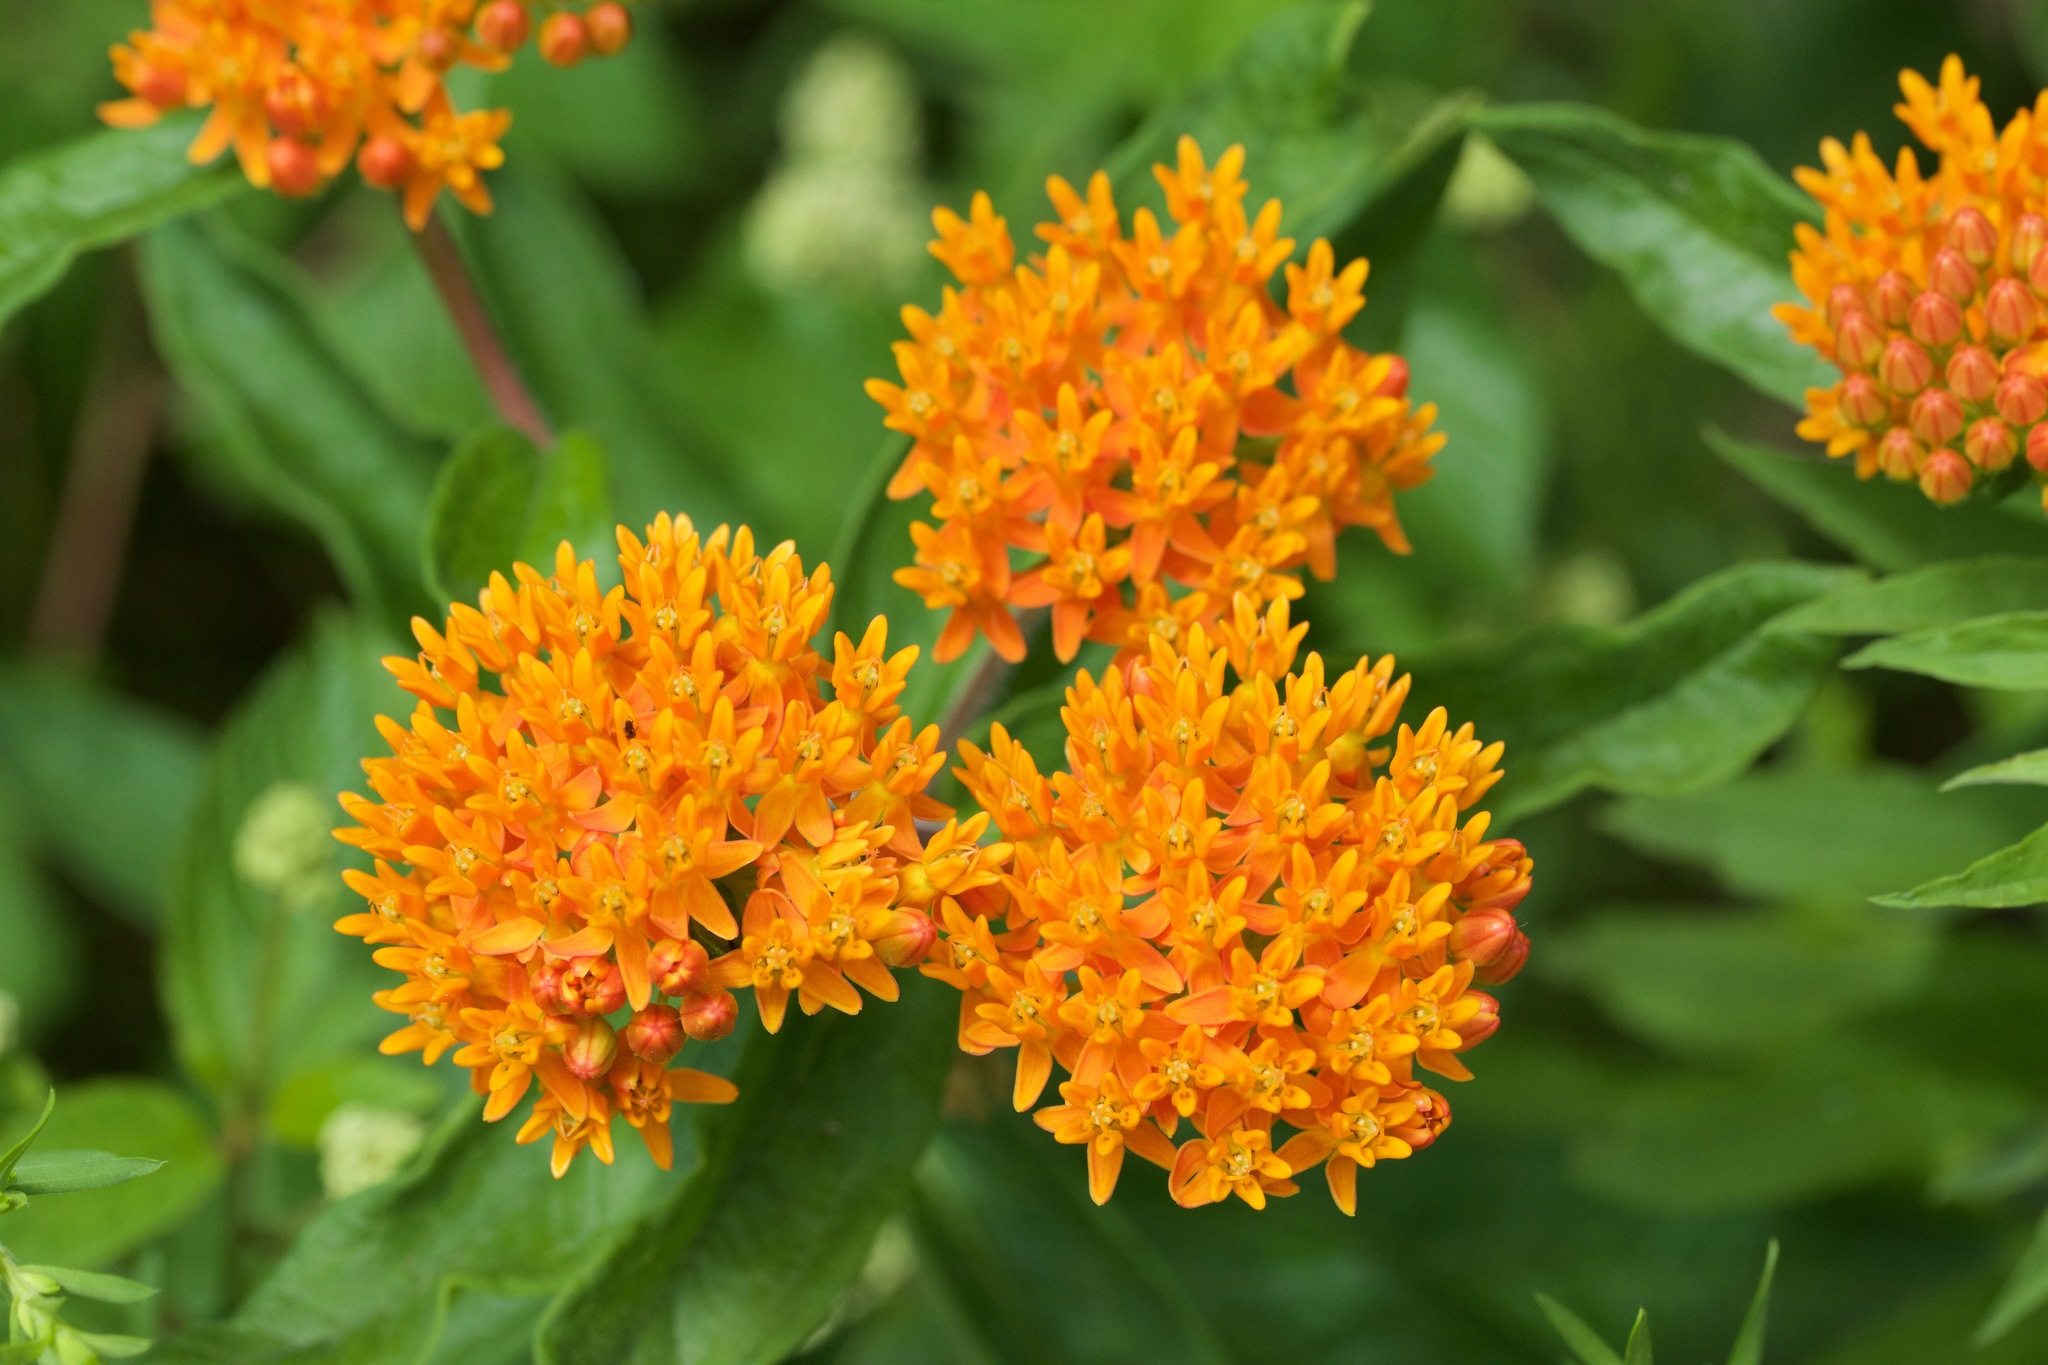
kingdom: Plantae
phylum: Tracheophyta
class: Magnoliopsida
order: Gentianales
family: Apocynaceae
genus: Asclepias
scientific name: Asclepias tuberosa
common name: Butterfly milkweed
